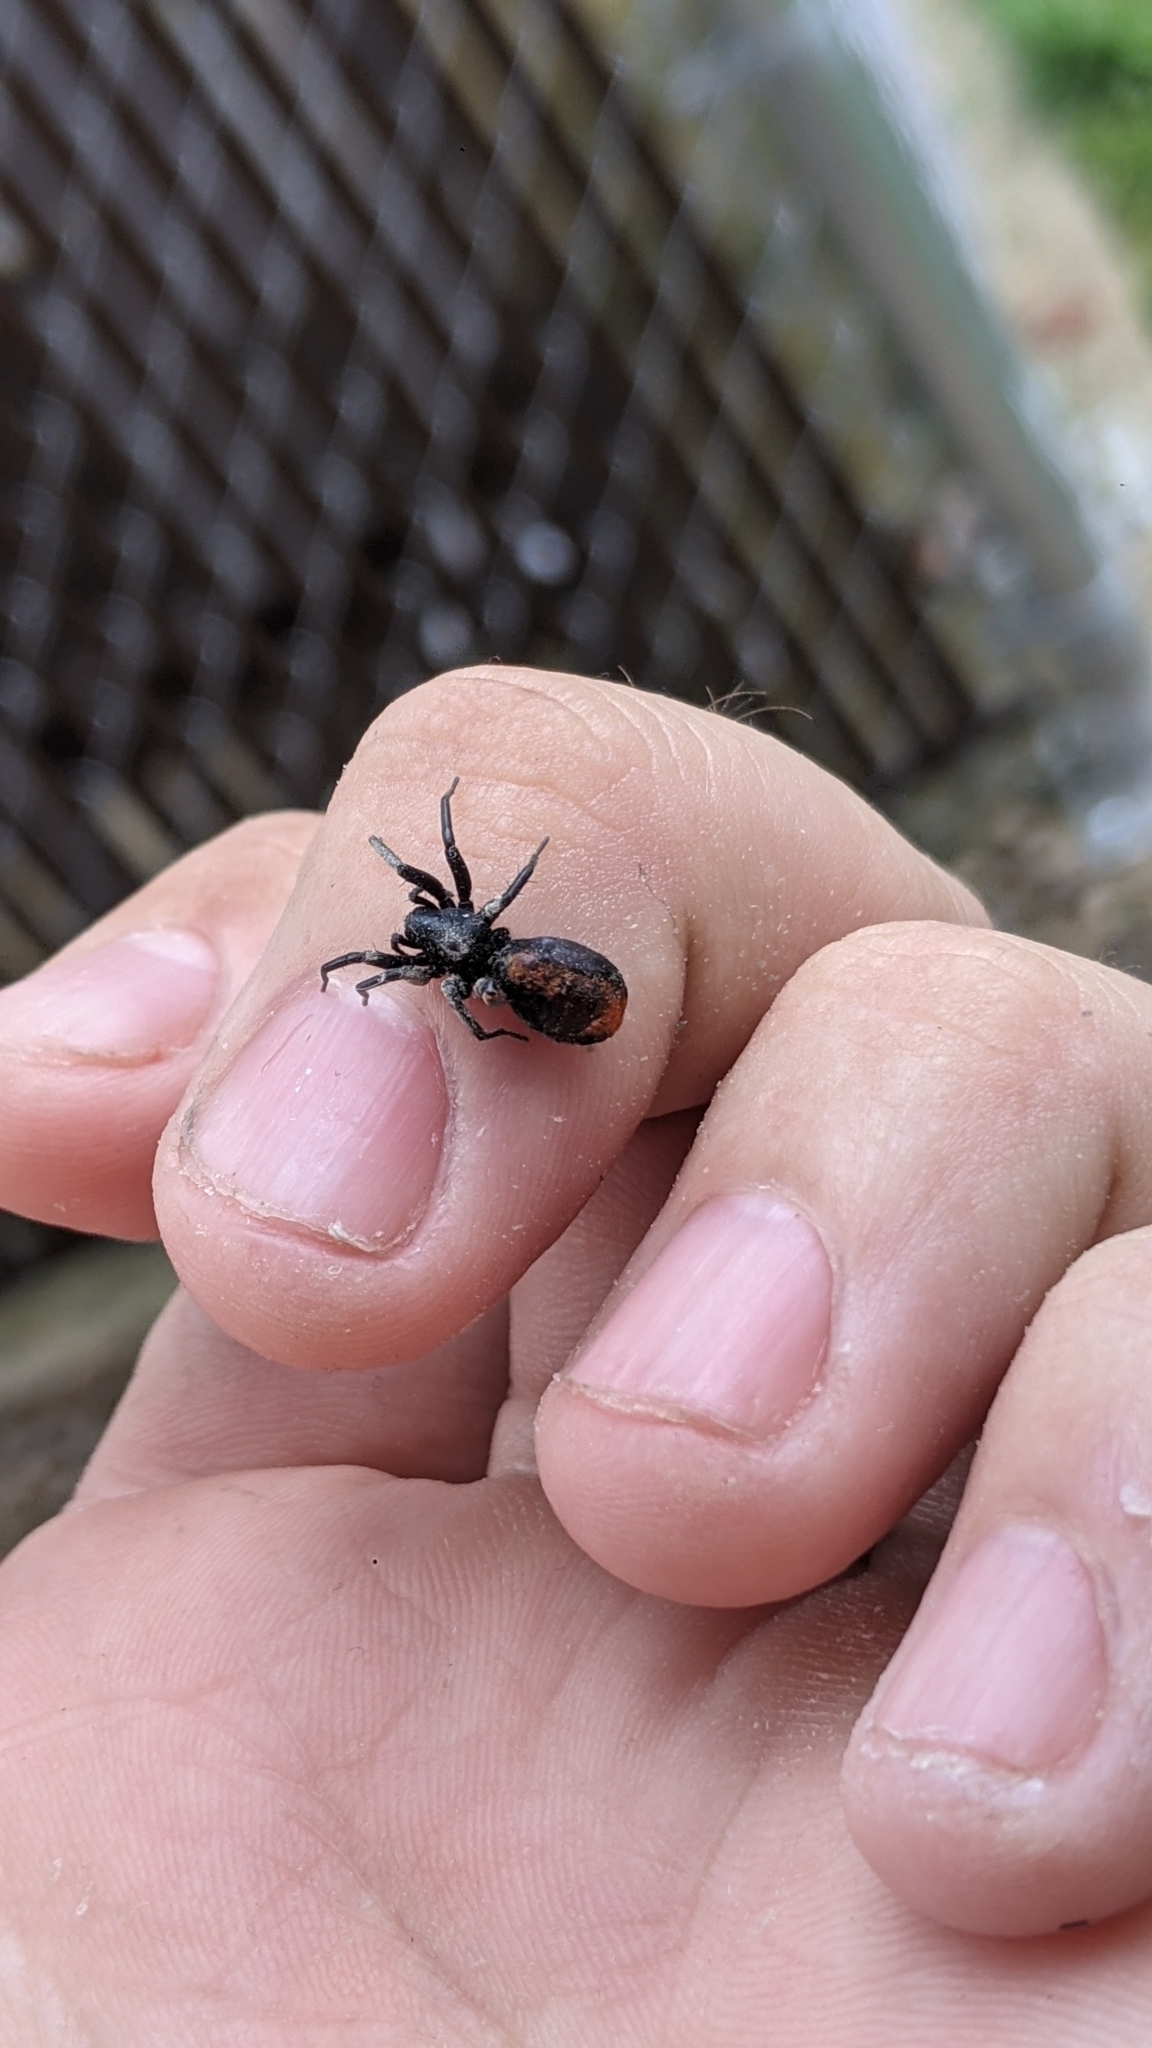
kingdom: Animalia
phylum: Arthropoda
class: Arachnida
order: Araneae
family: Corinnidae
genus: Castianeira
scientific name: Castianeira descripta
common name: Red-spotted ant-mimic sac spider
